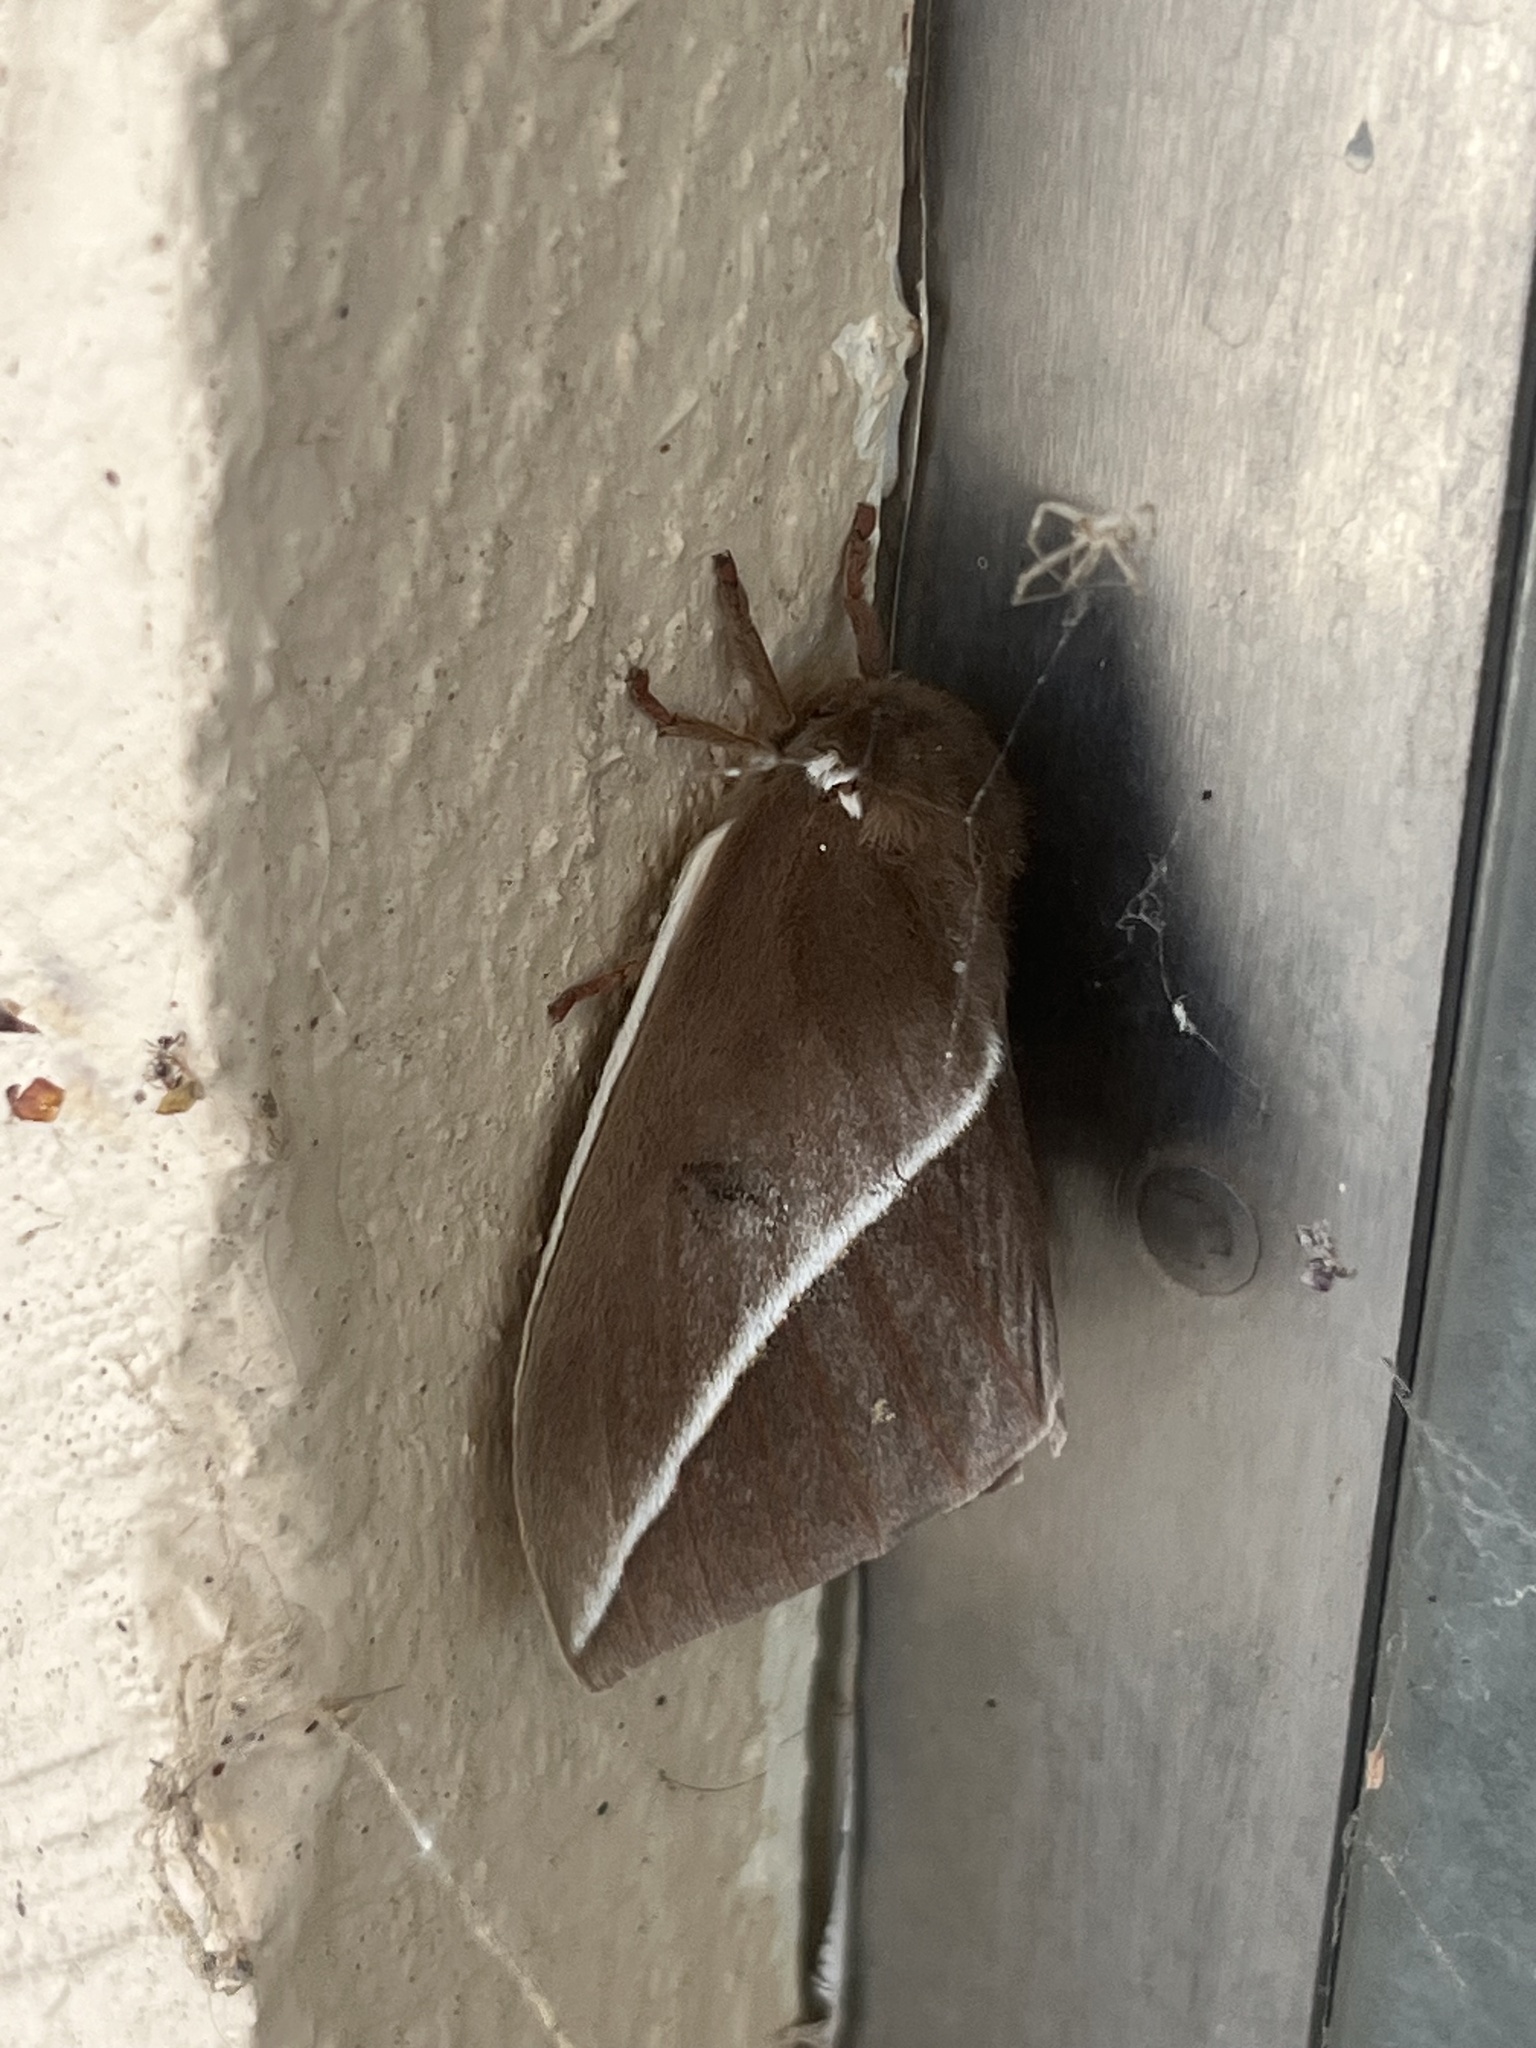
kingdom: Animalia
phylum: Arthropoda
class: Insecta
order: Lepidoptera
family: Saturniidae
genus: Automeris
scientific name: Automeris zephyria
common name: Zephyr eyed silkmoth
